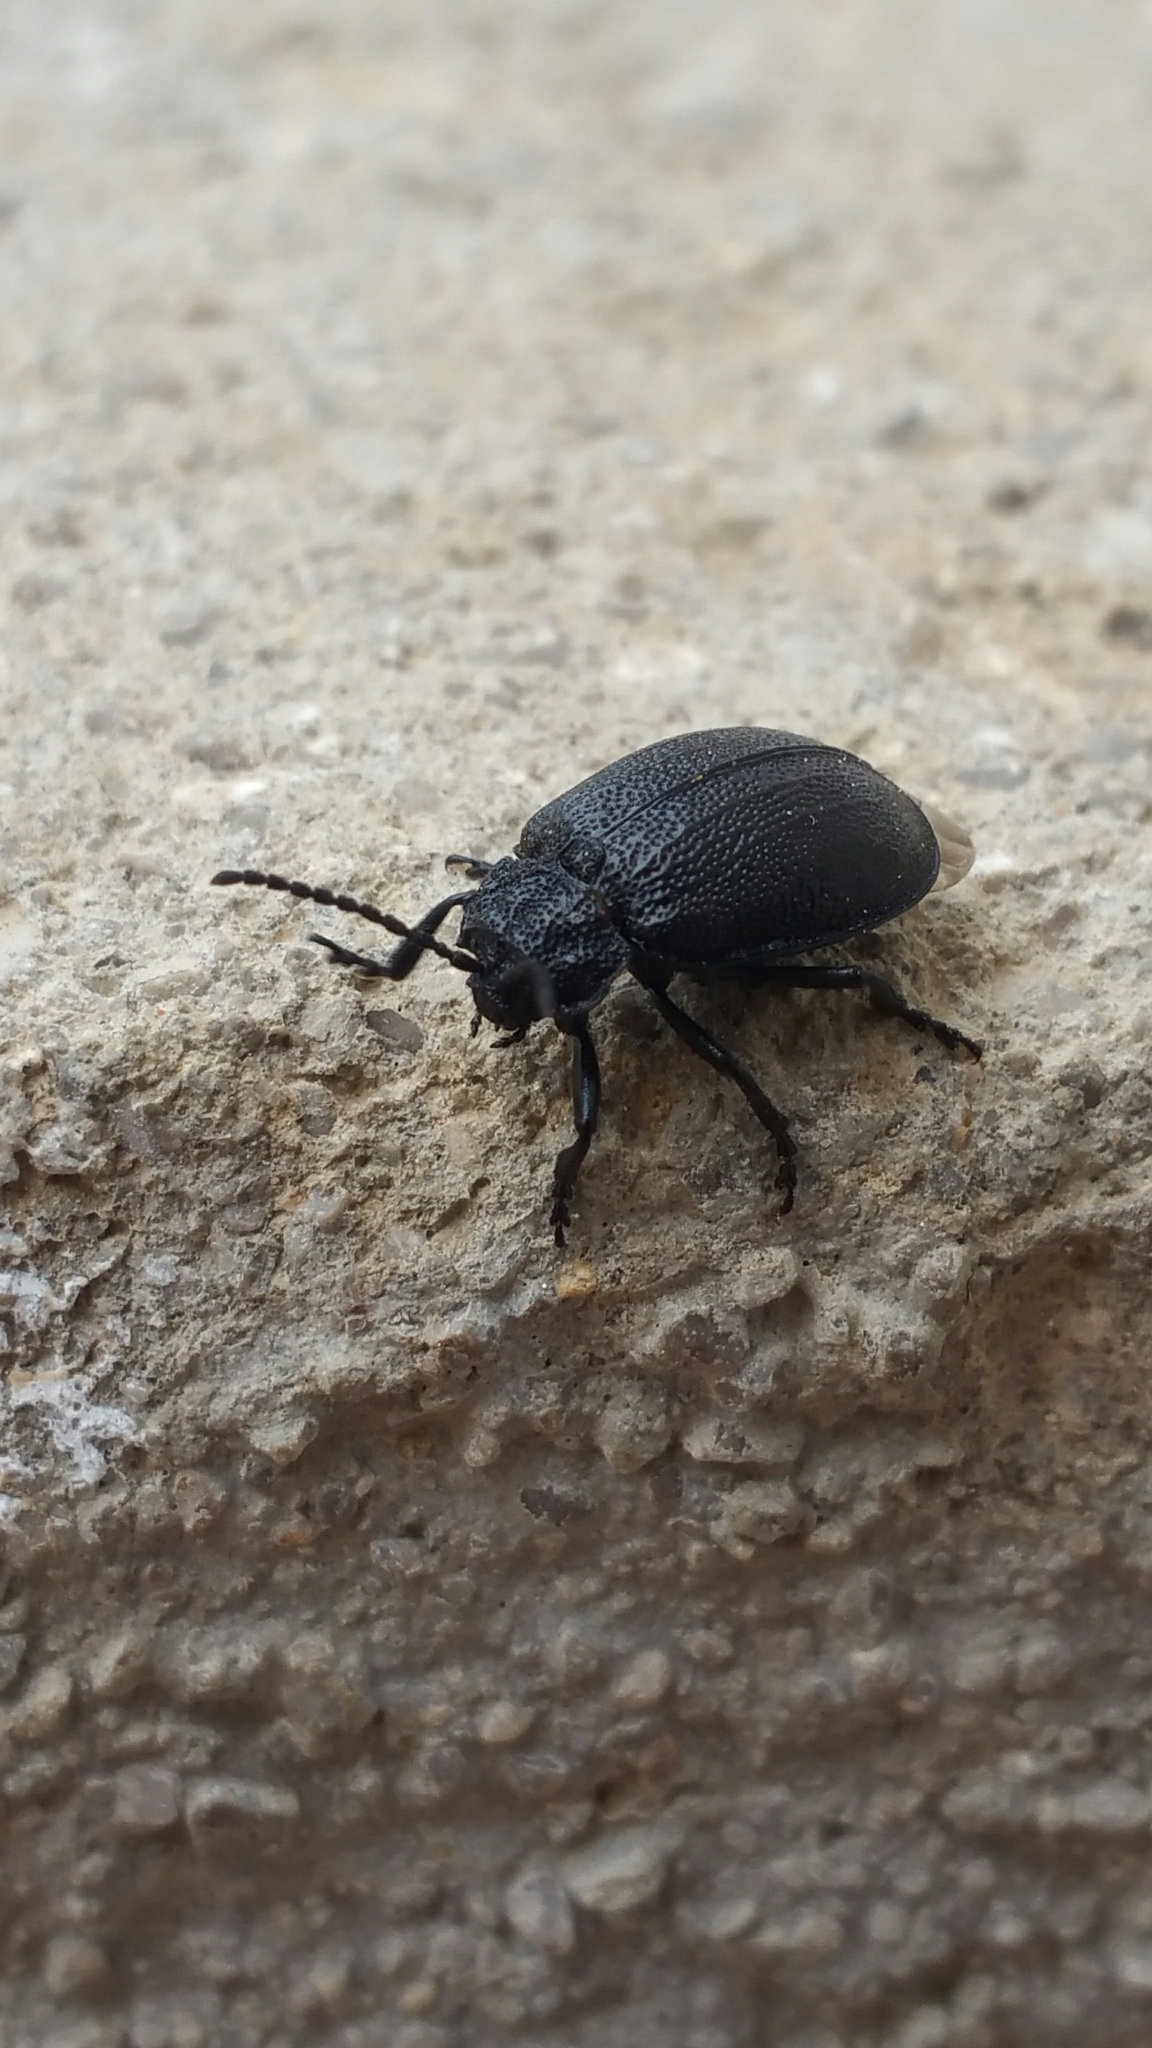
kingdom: Animalia
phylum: Arthropoda
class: Insecta
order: Coleoptera
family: Chrysomelidae
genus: Galeruca
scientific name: Galeruca tanaceti
